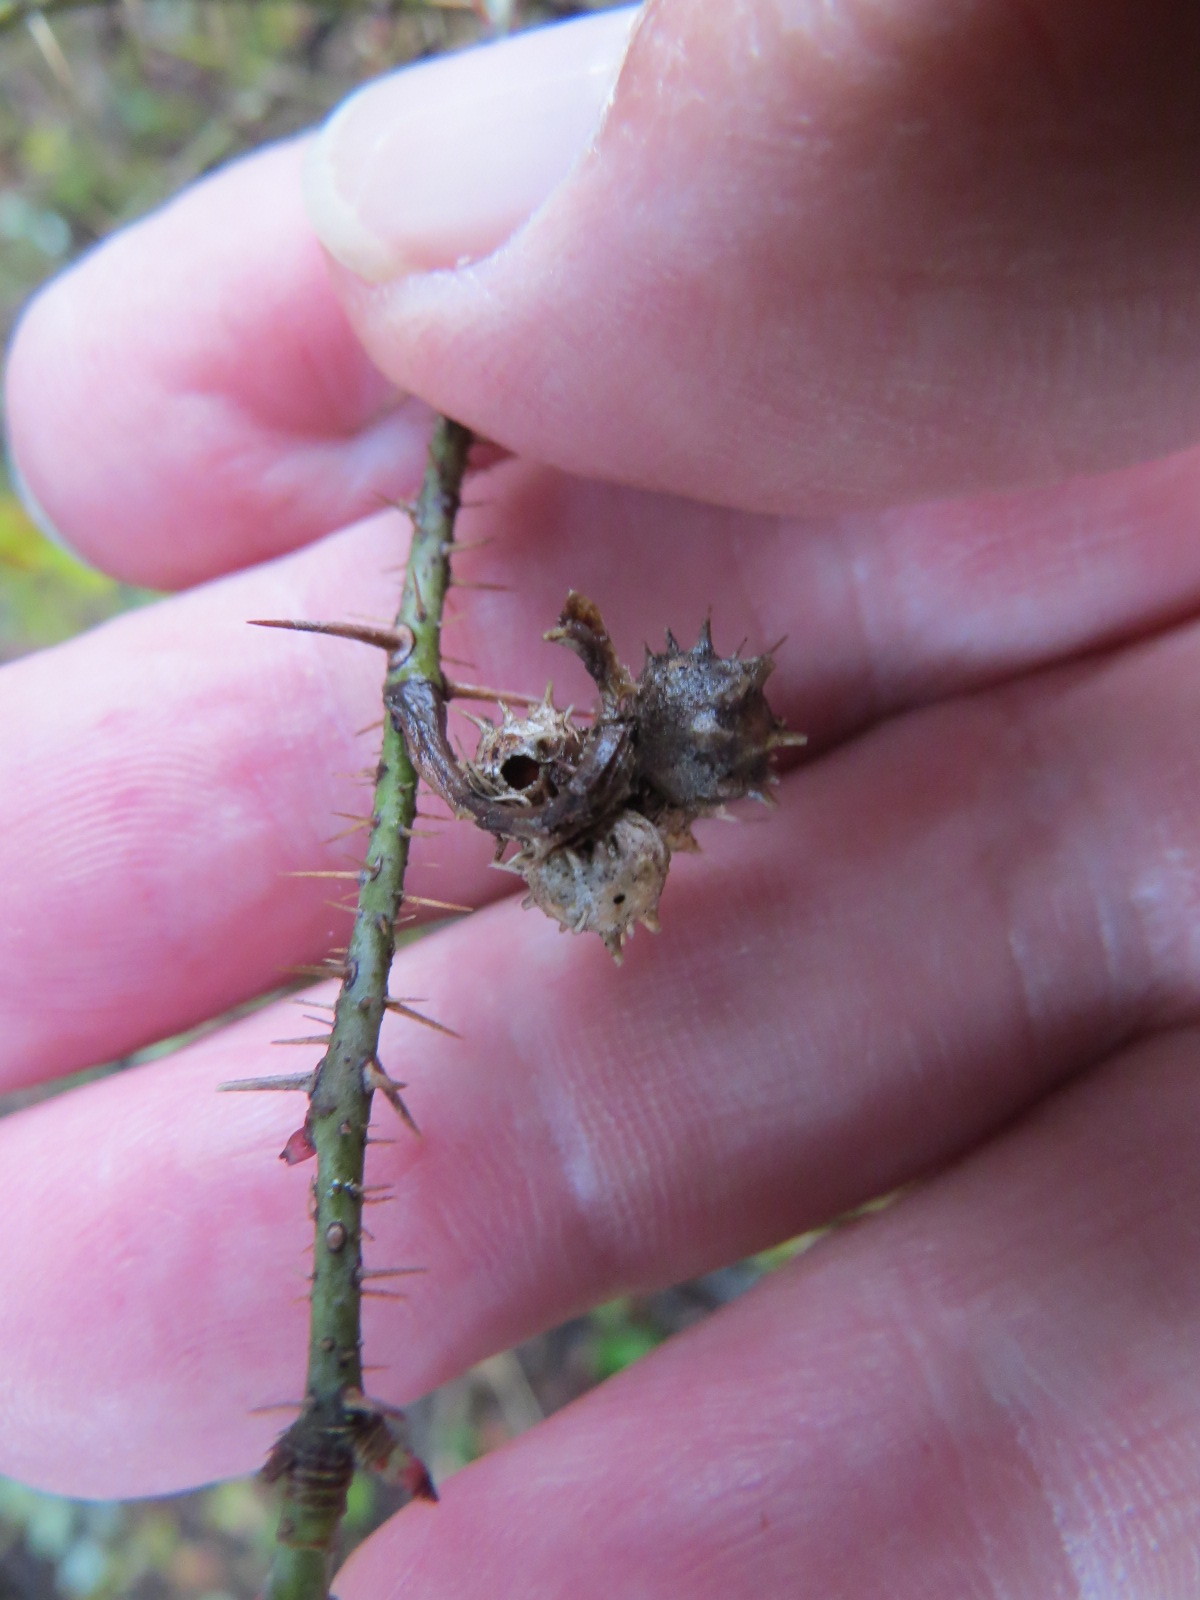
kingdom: Animalia
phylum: Arthropoda
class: Insecta
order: Hymenoptera
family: Cynipidae
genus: Diplolepis
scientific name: Diplolepis bicolor
